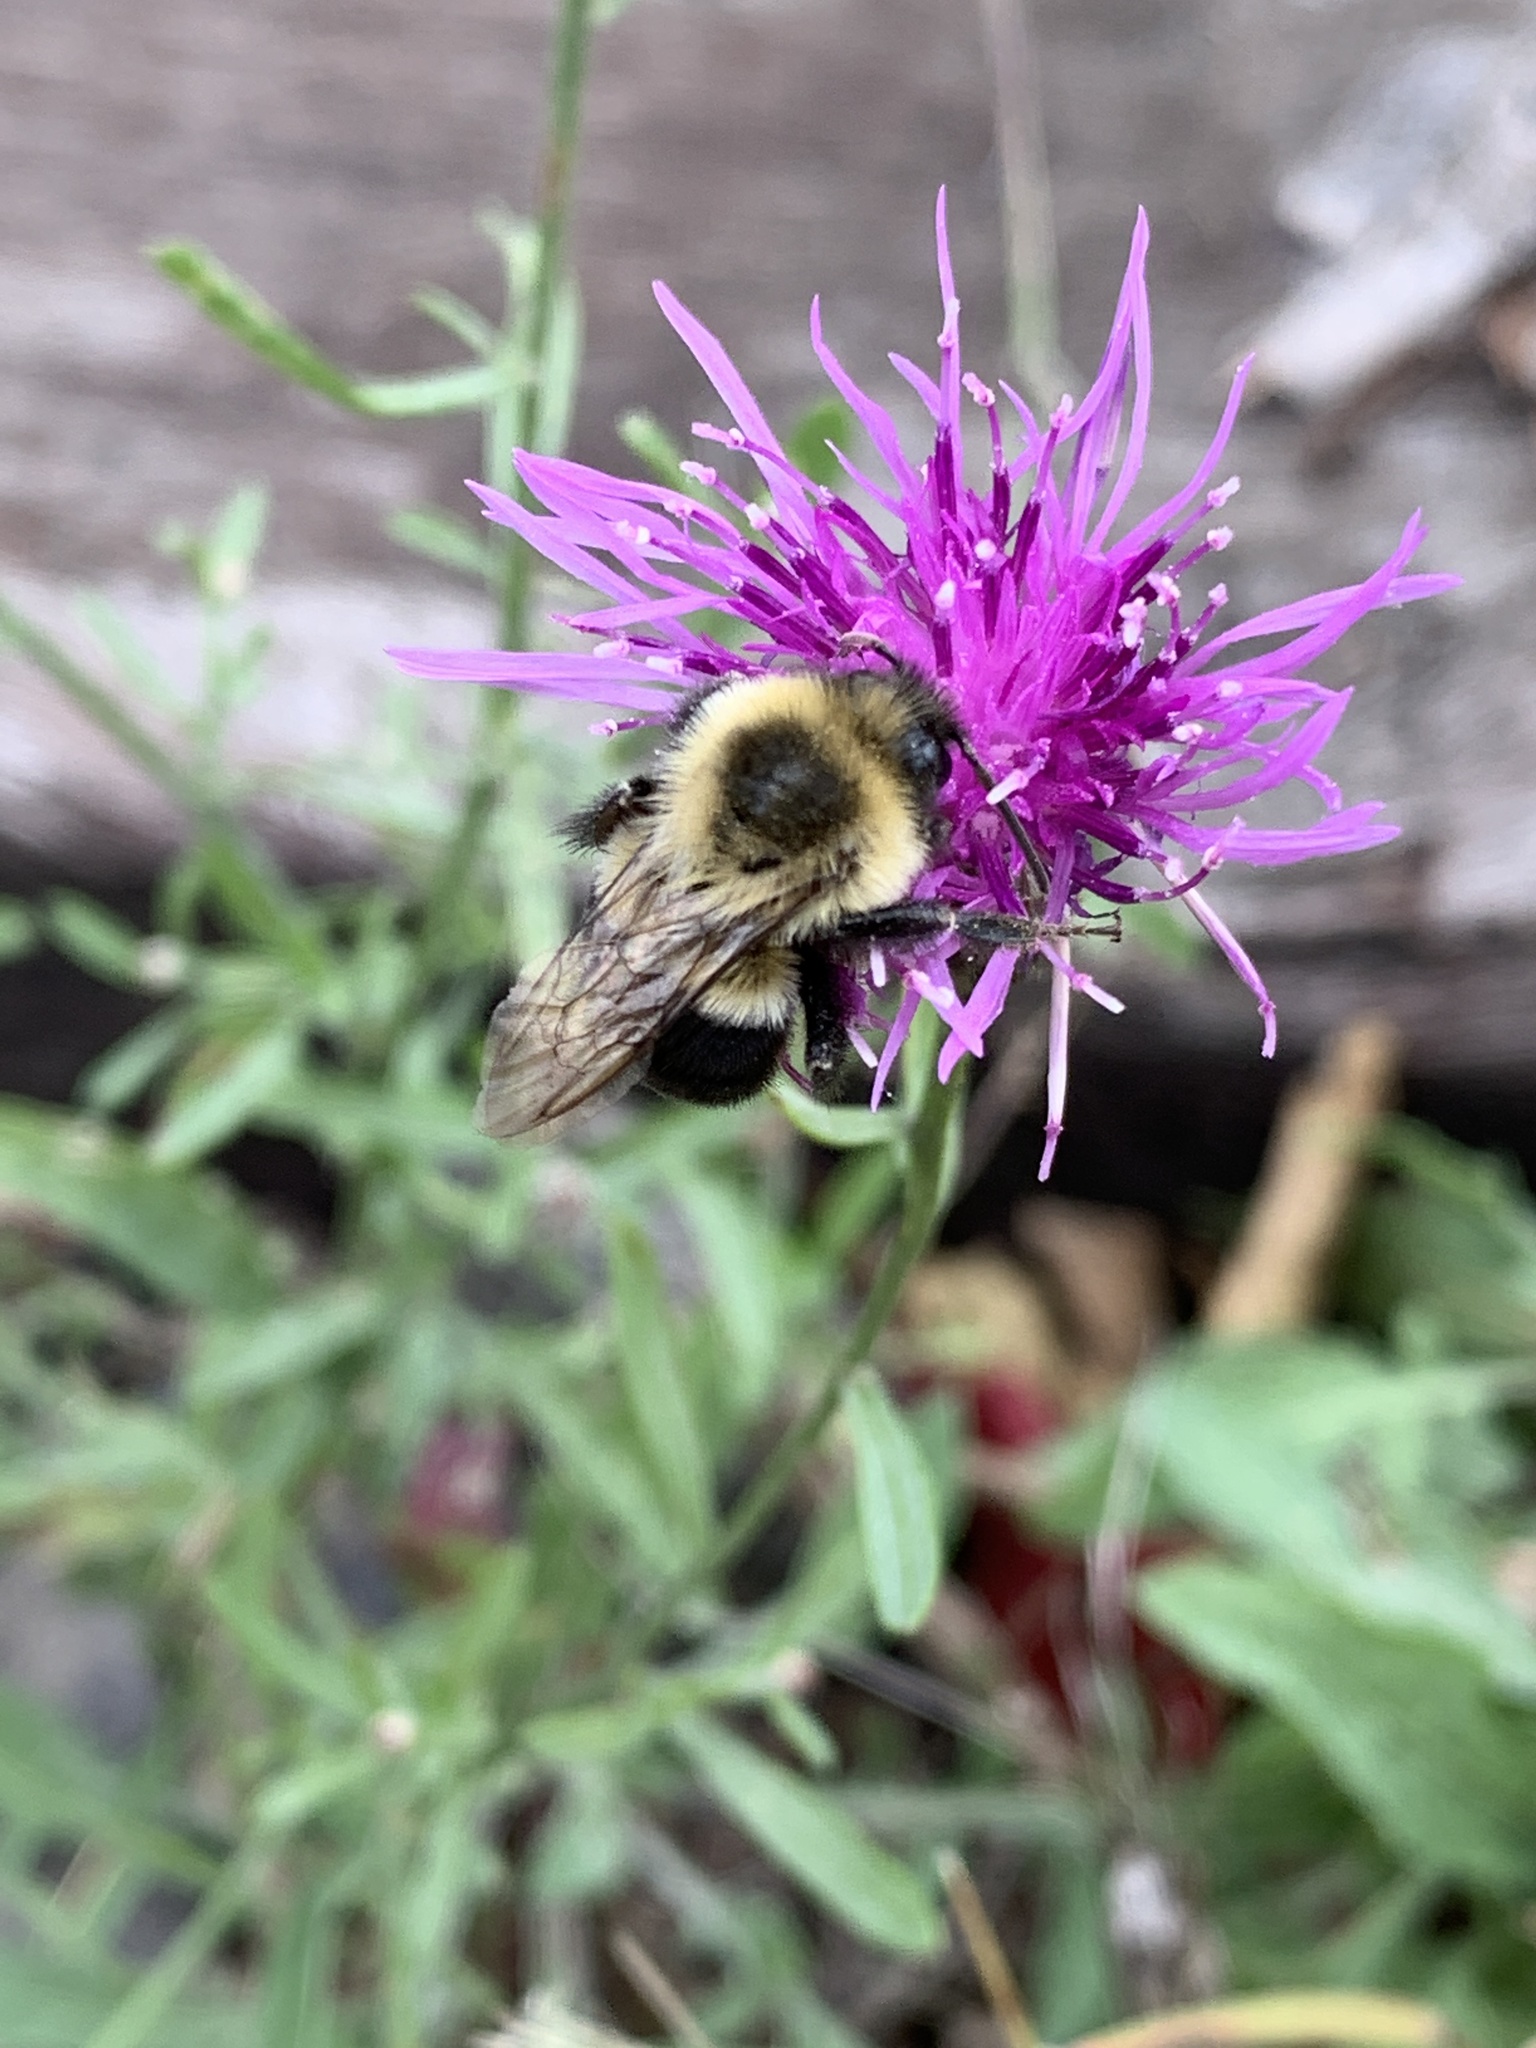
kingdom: Animalia
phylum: Arthropoda
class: Insecta
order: Hymenoptera
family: Apidae
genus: Bombus
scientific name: Bombus impatiens
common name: Common eastern bumble bee
